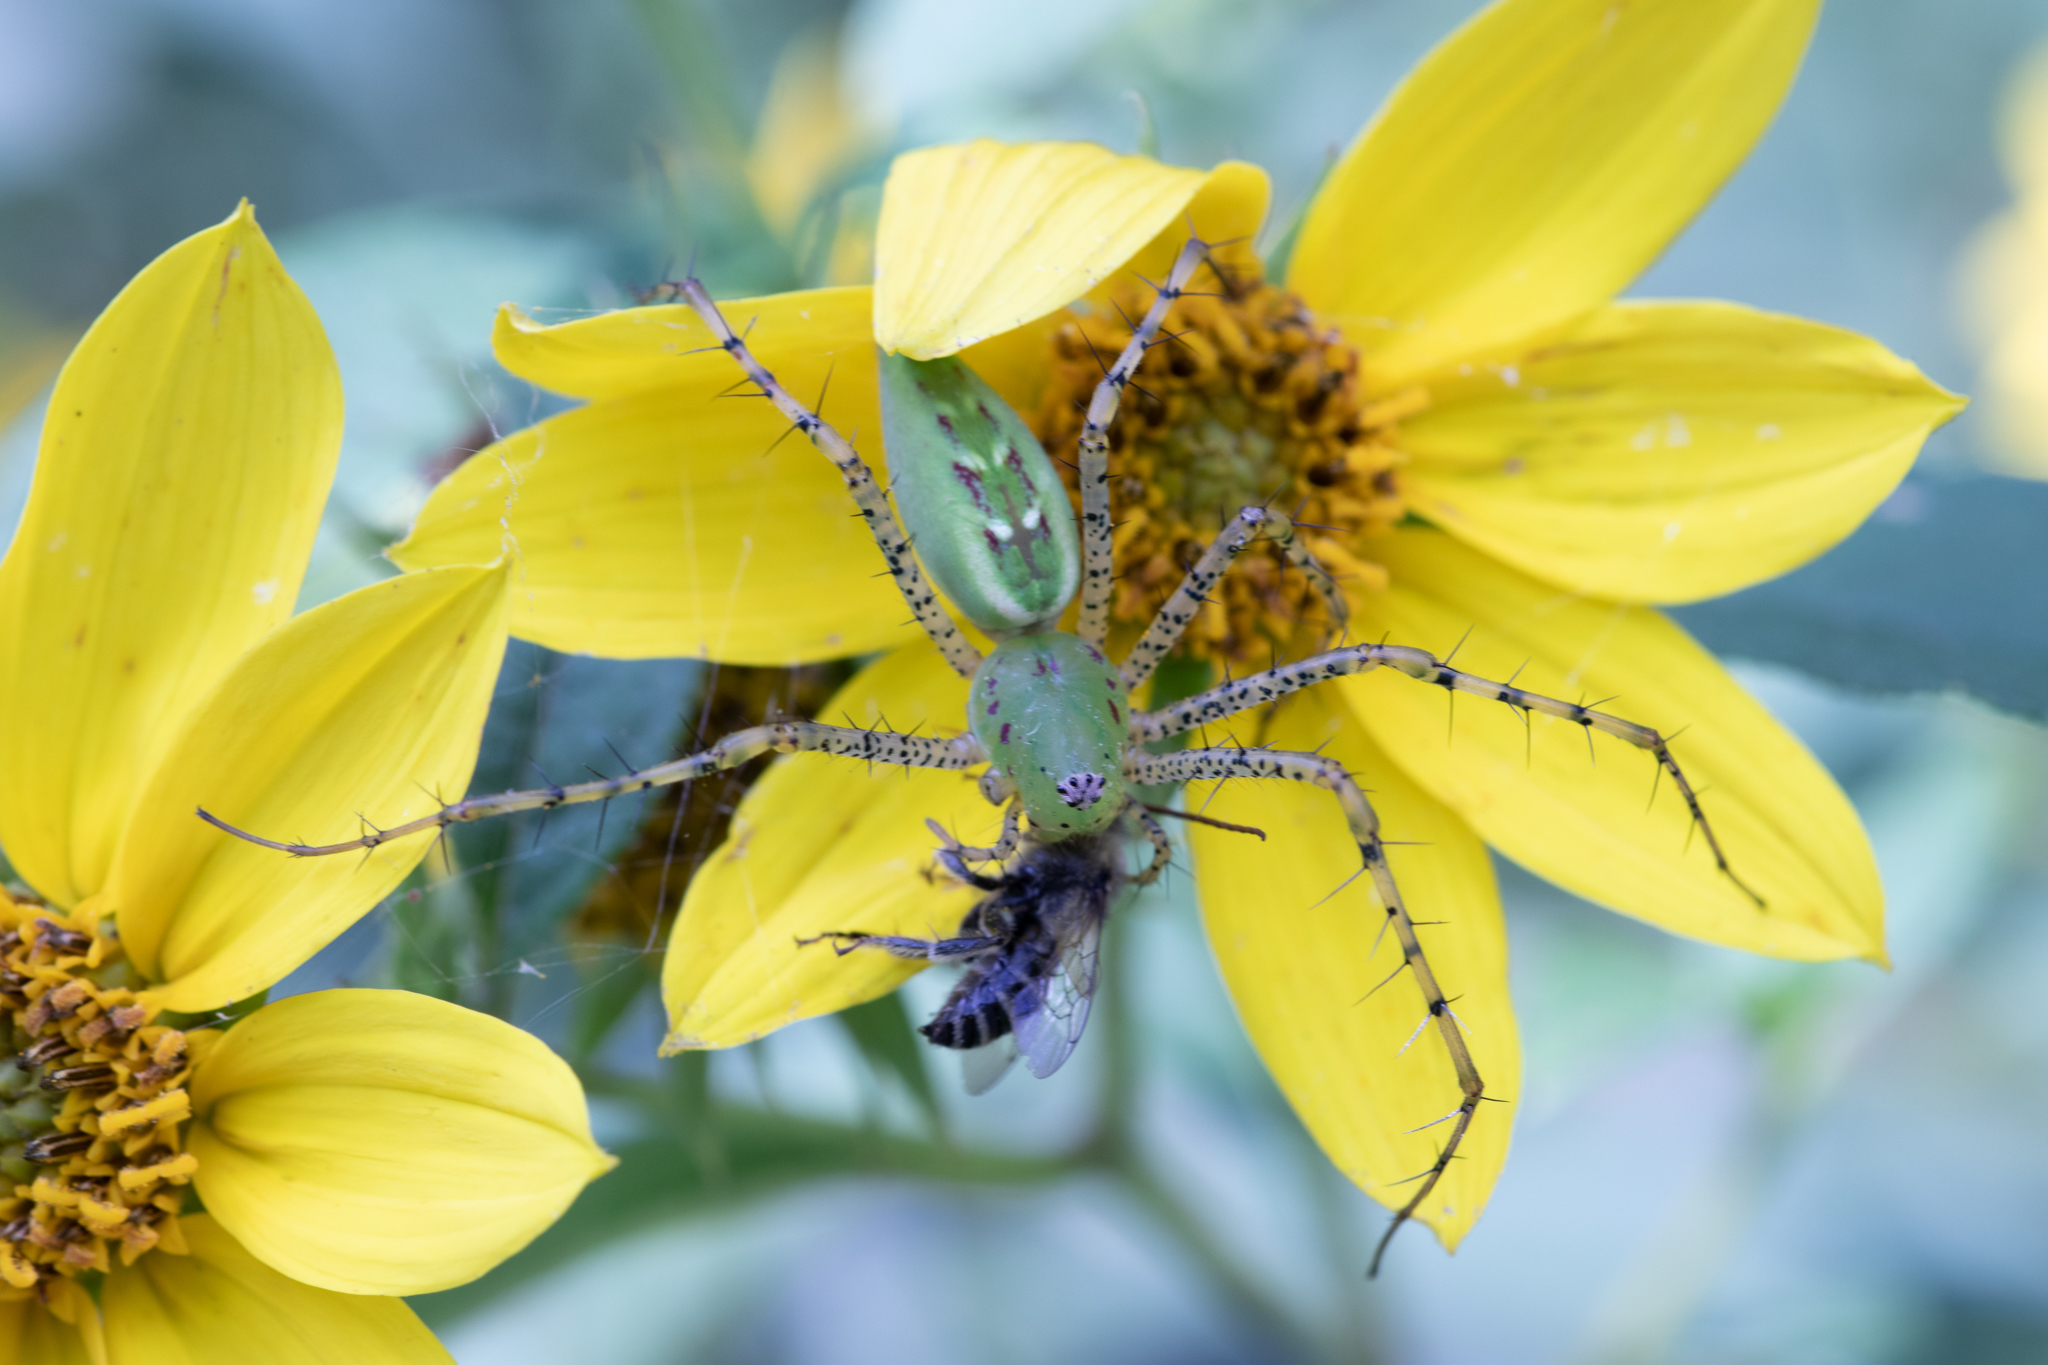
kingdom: Animalia
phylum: Arthropoda
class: Arachnida
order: Araneae
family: Oxyopidae
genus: Peucetia
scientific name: Peucetia viridans
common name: Lynx spiders
